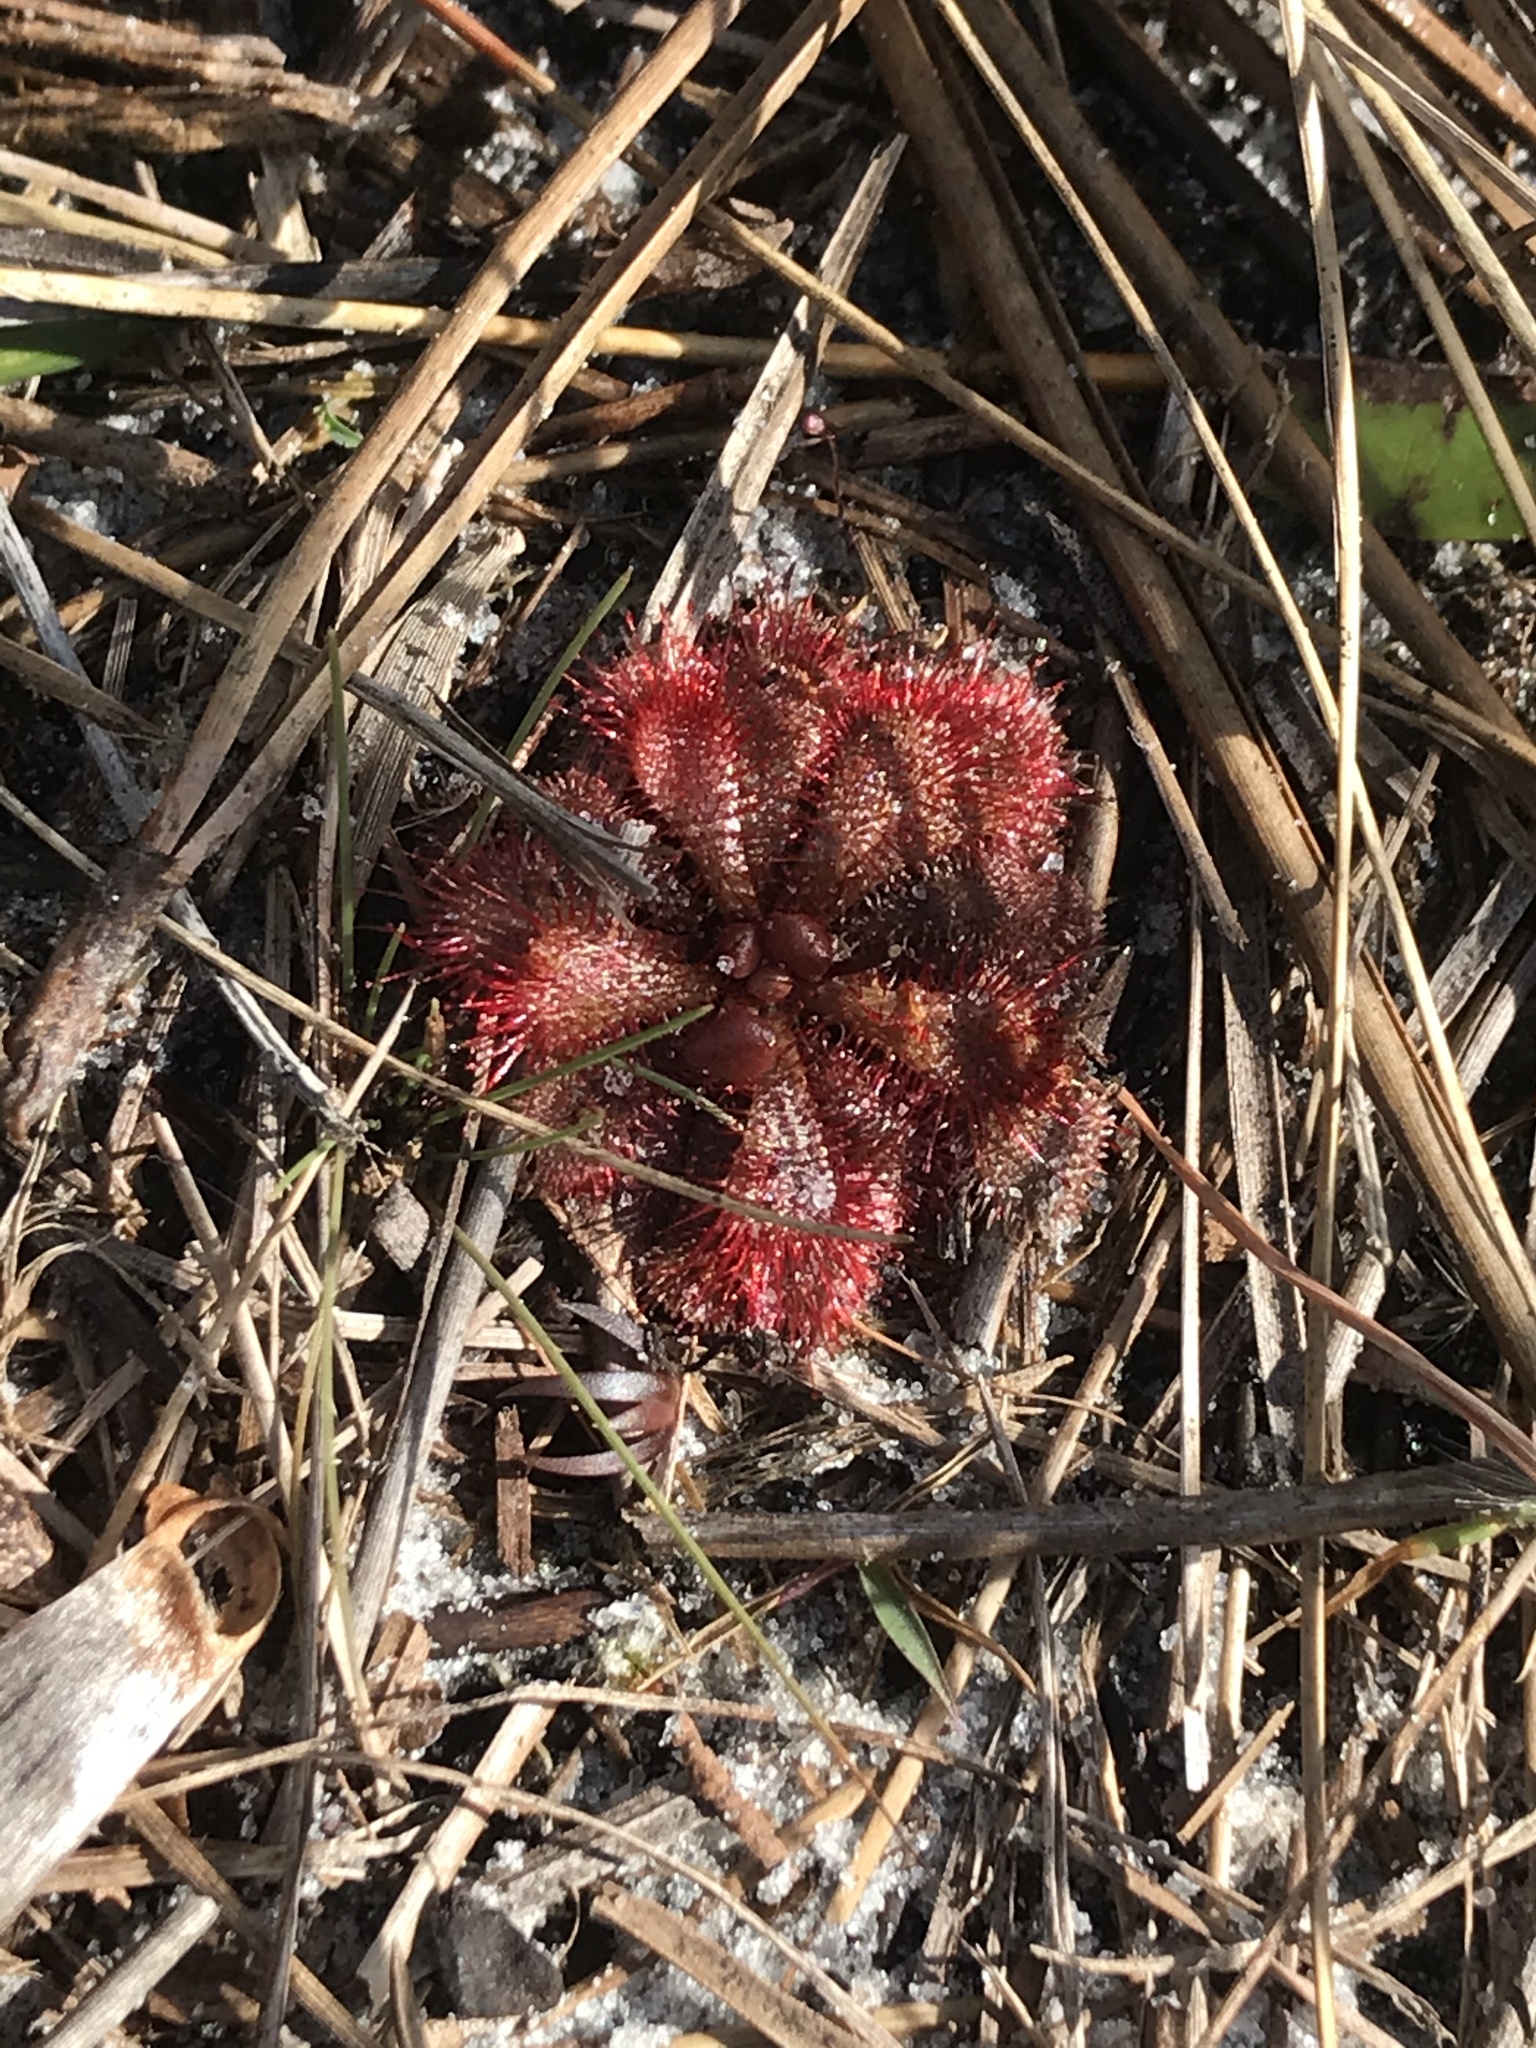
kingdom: Plantae
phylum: Tracheophyta
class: Magnoliopsida
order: Caryophyllales
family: Droseraceae
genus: Drosera
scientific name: Drosera brevifolia
